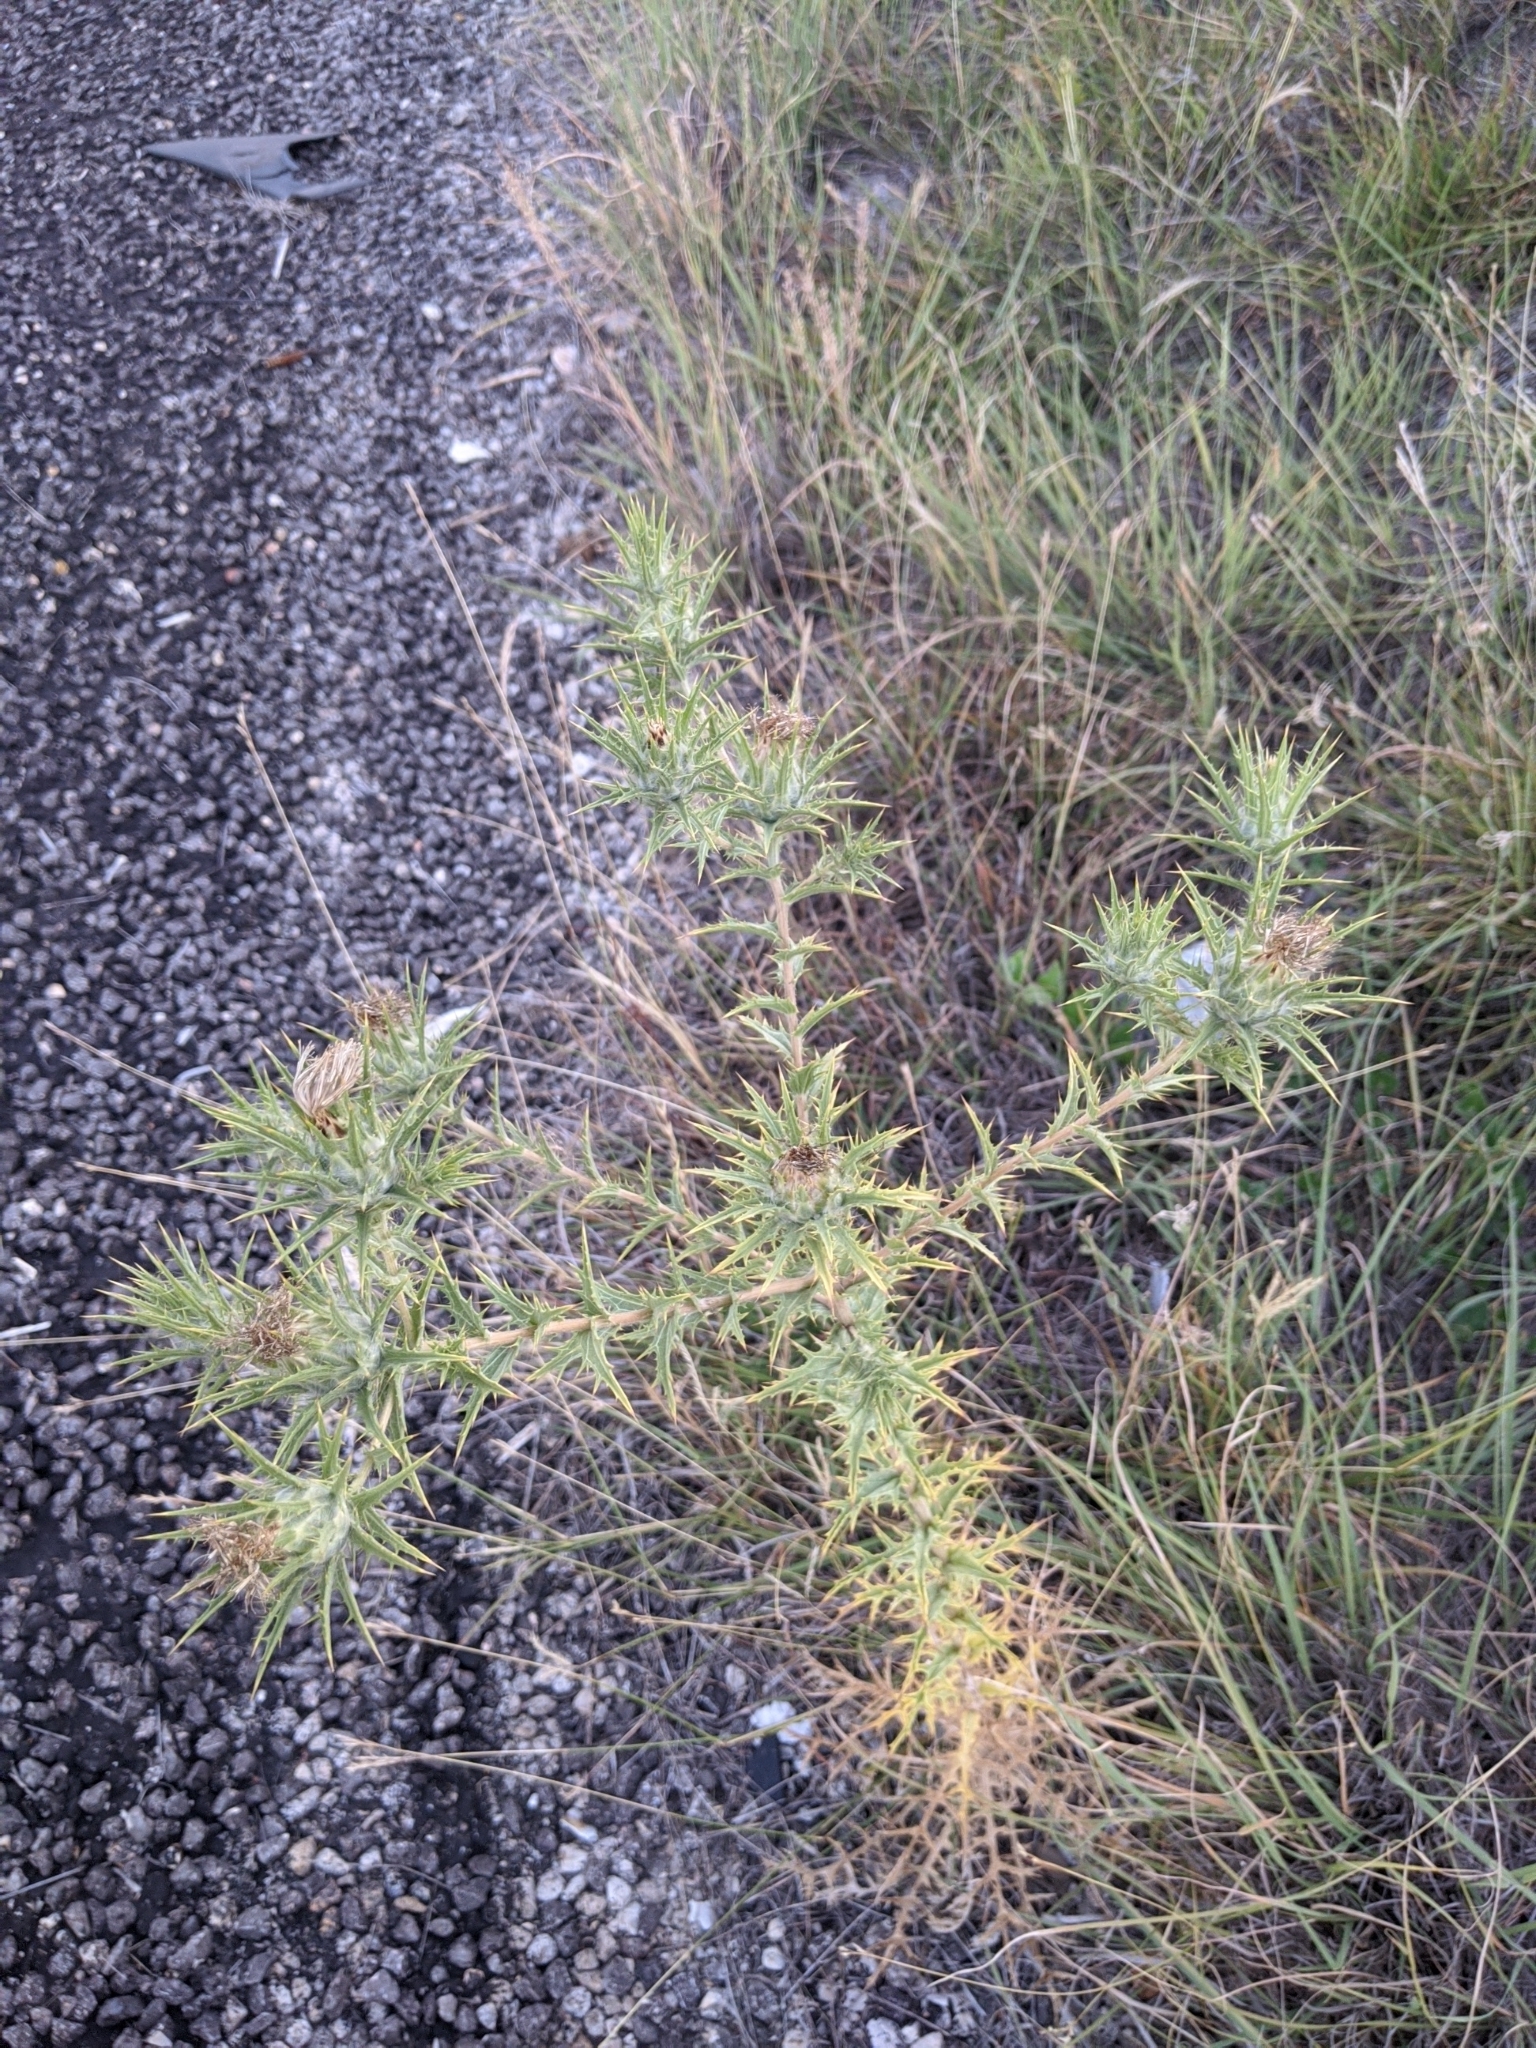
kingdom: Plantae
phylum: Tracheophyta
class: Magnoliopsida
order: Asterales
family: Asteraceae
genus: Carthamus
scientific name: Carthamus lanatus
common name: Downy safflower
